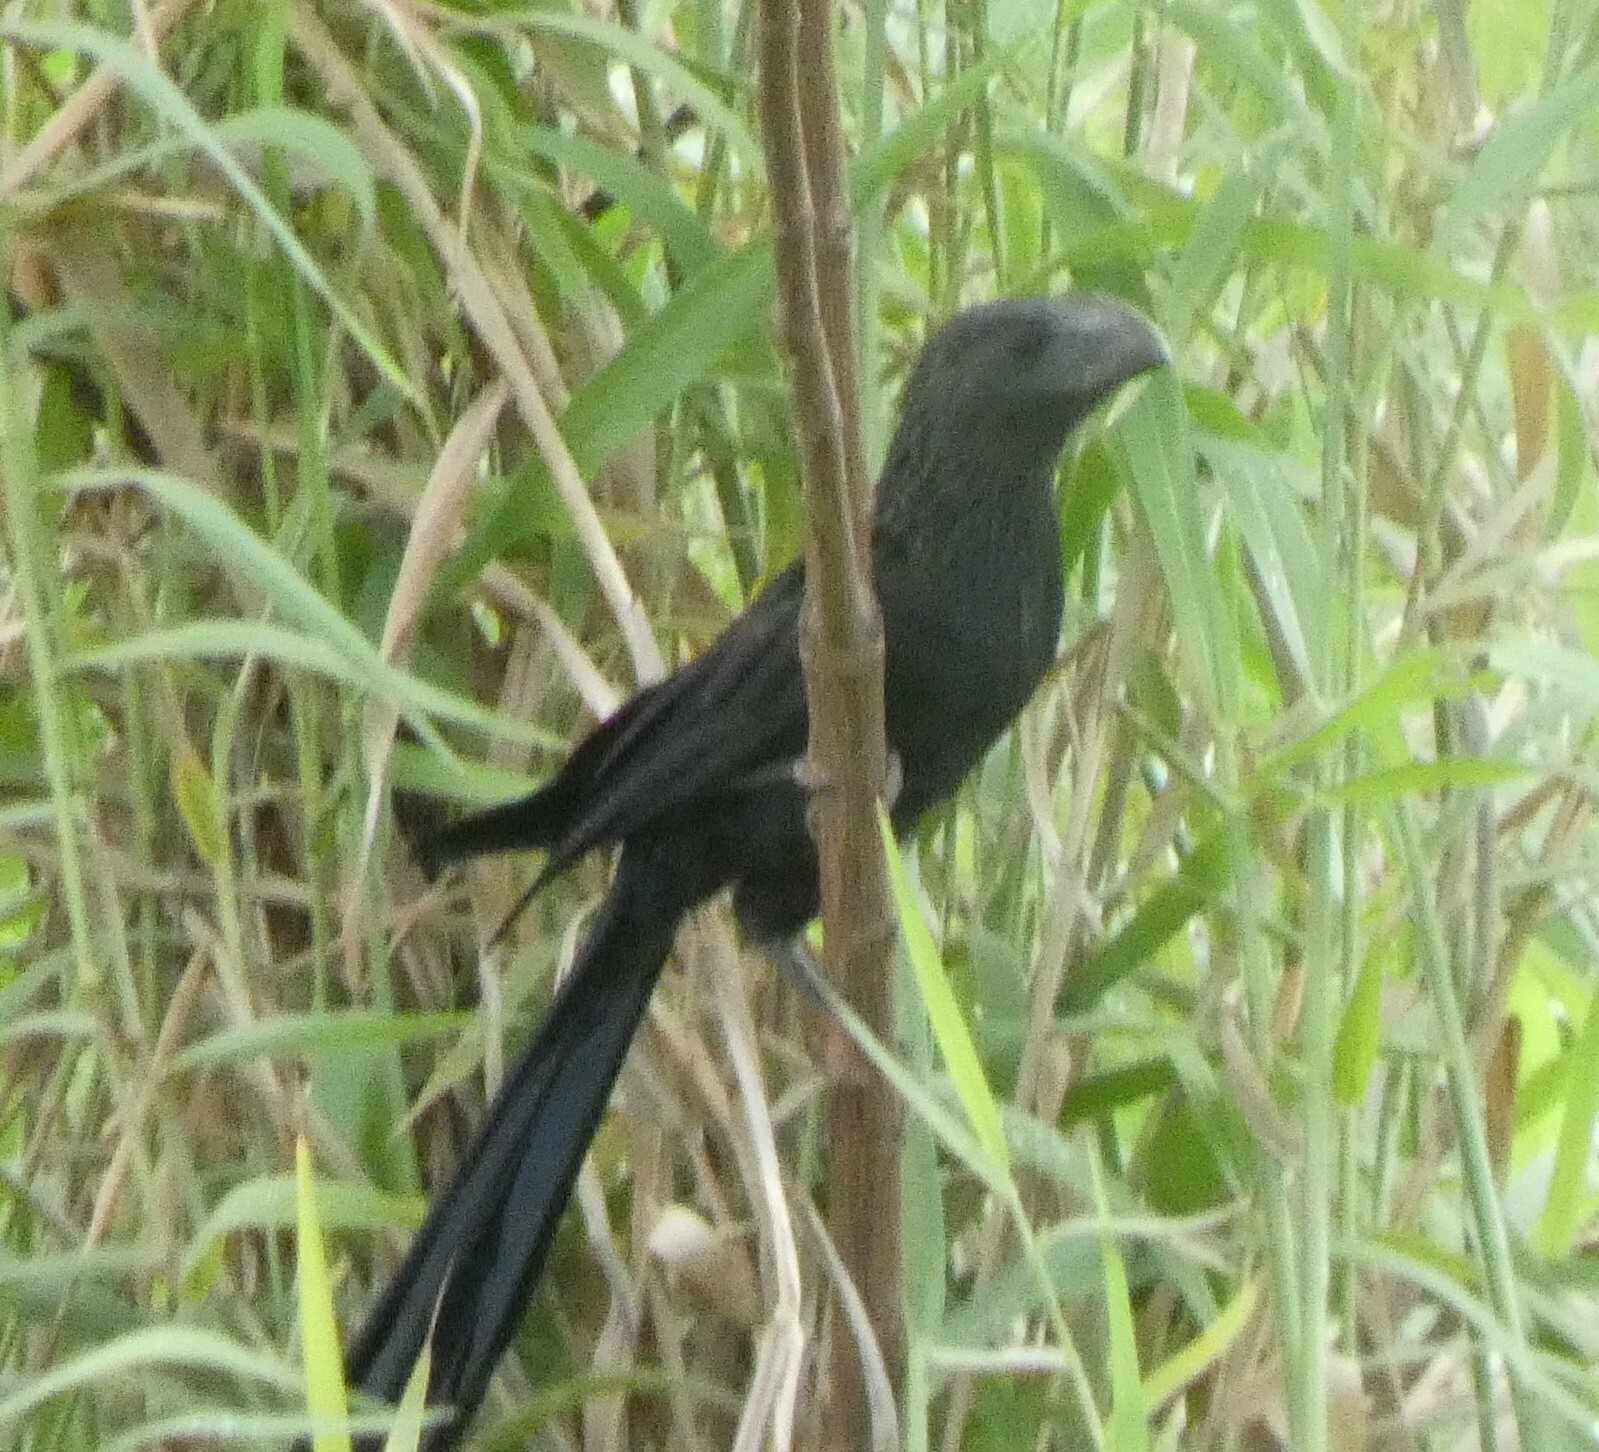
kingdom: Animalia
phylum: Chordata
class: Aves
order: Cuculiformes
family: Cuculidae
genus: Crotophaga
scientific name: Crotophaga ani
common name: Smooth-billed ani
